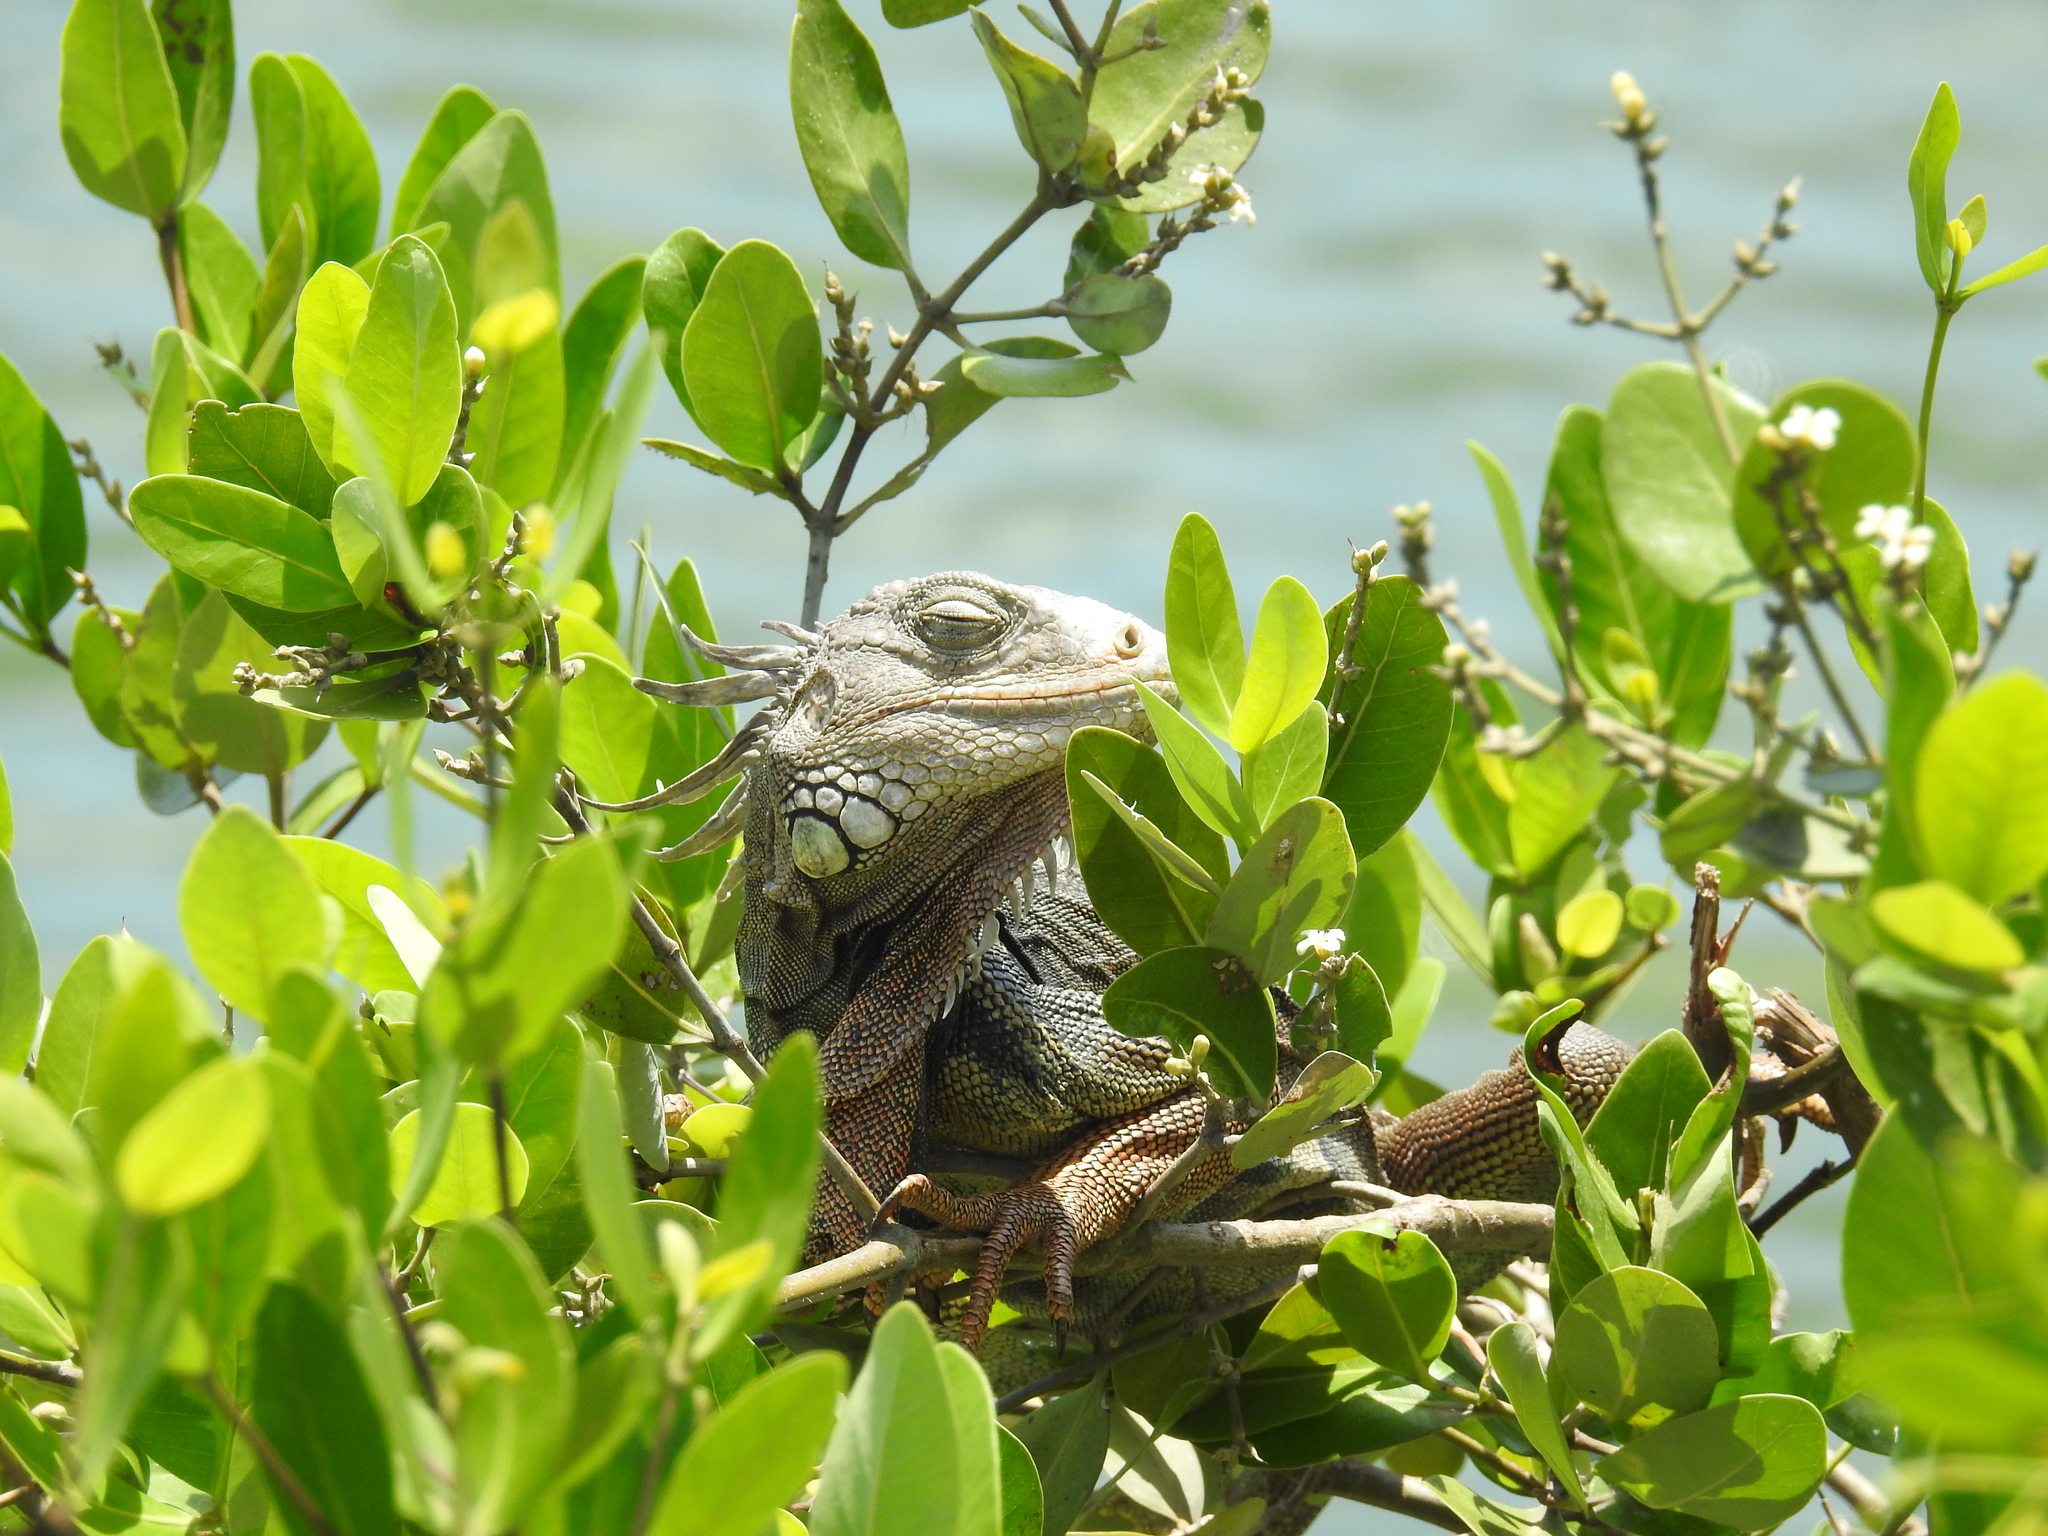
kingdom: Animalia
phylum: Chordata
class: Squamata
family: Iguanidae
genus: Iguana
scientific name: Iguana iguana
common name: Green iguana
